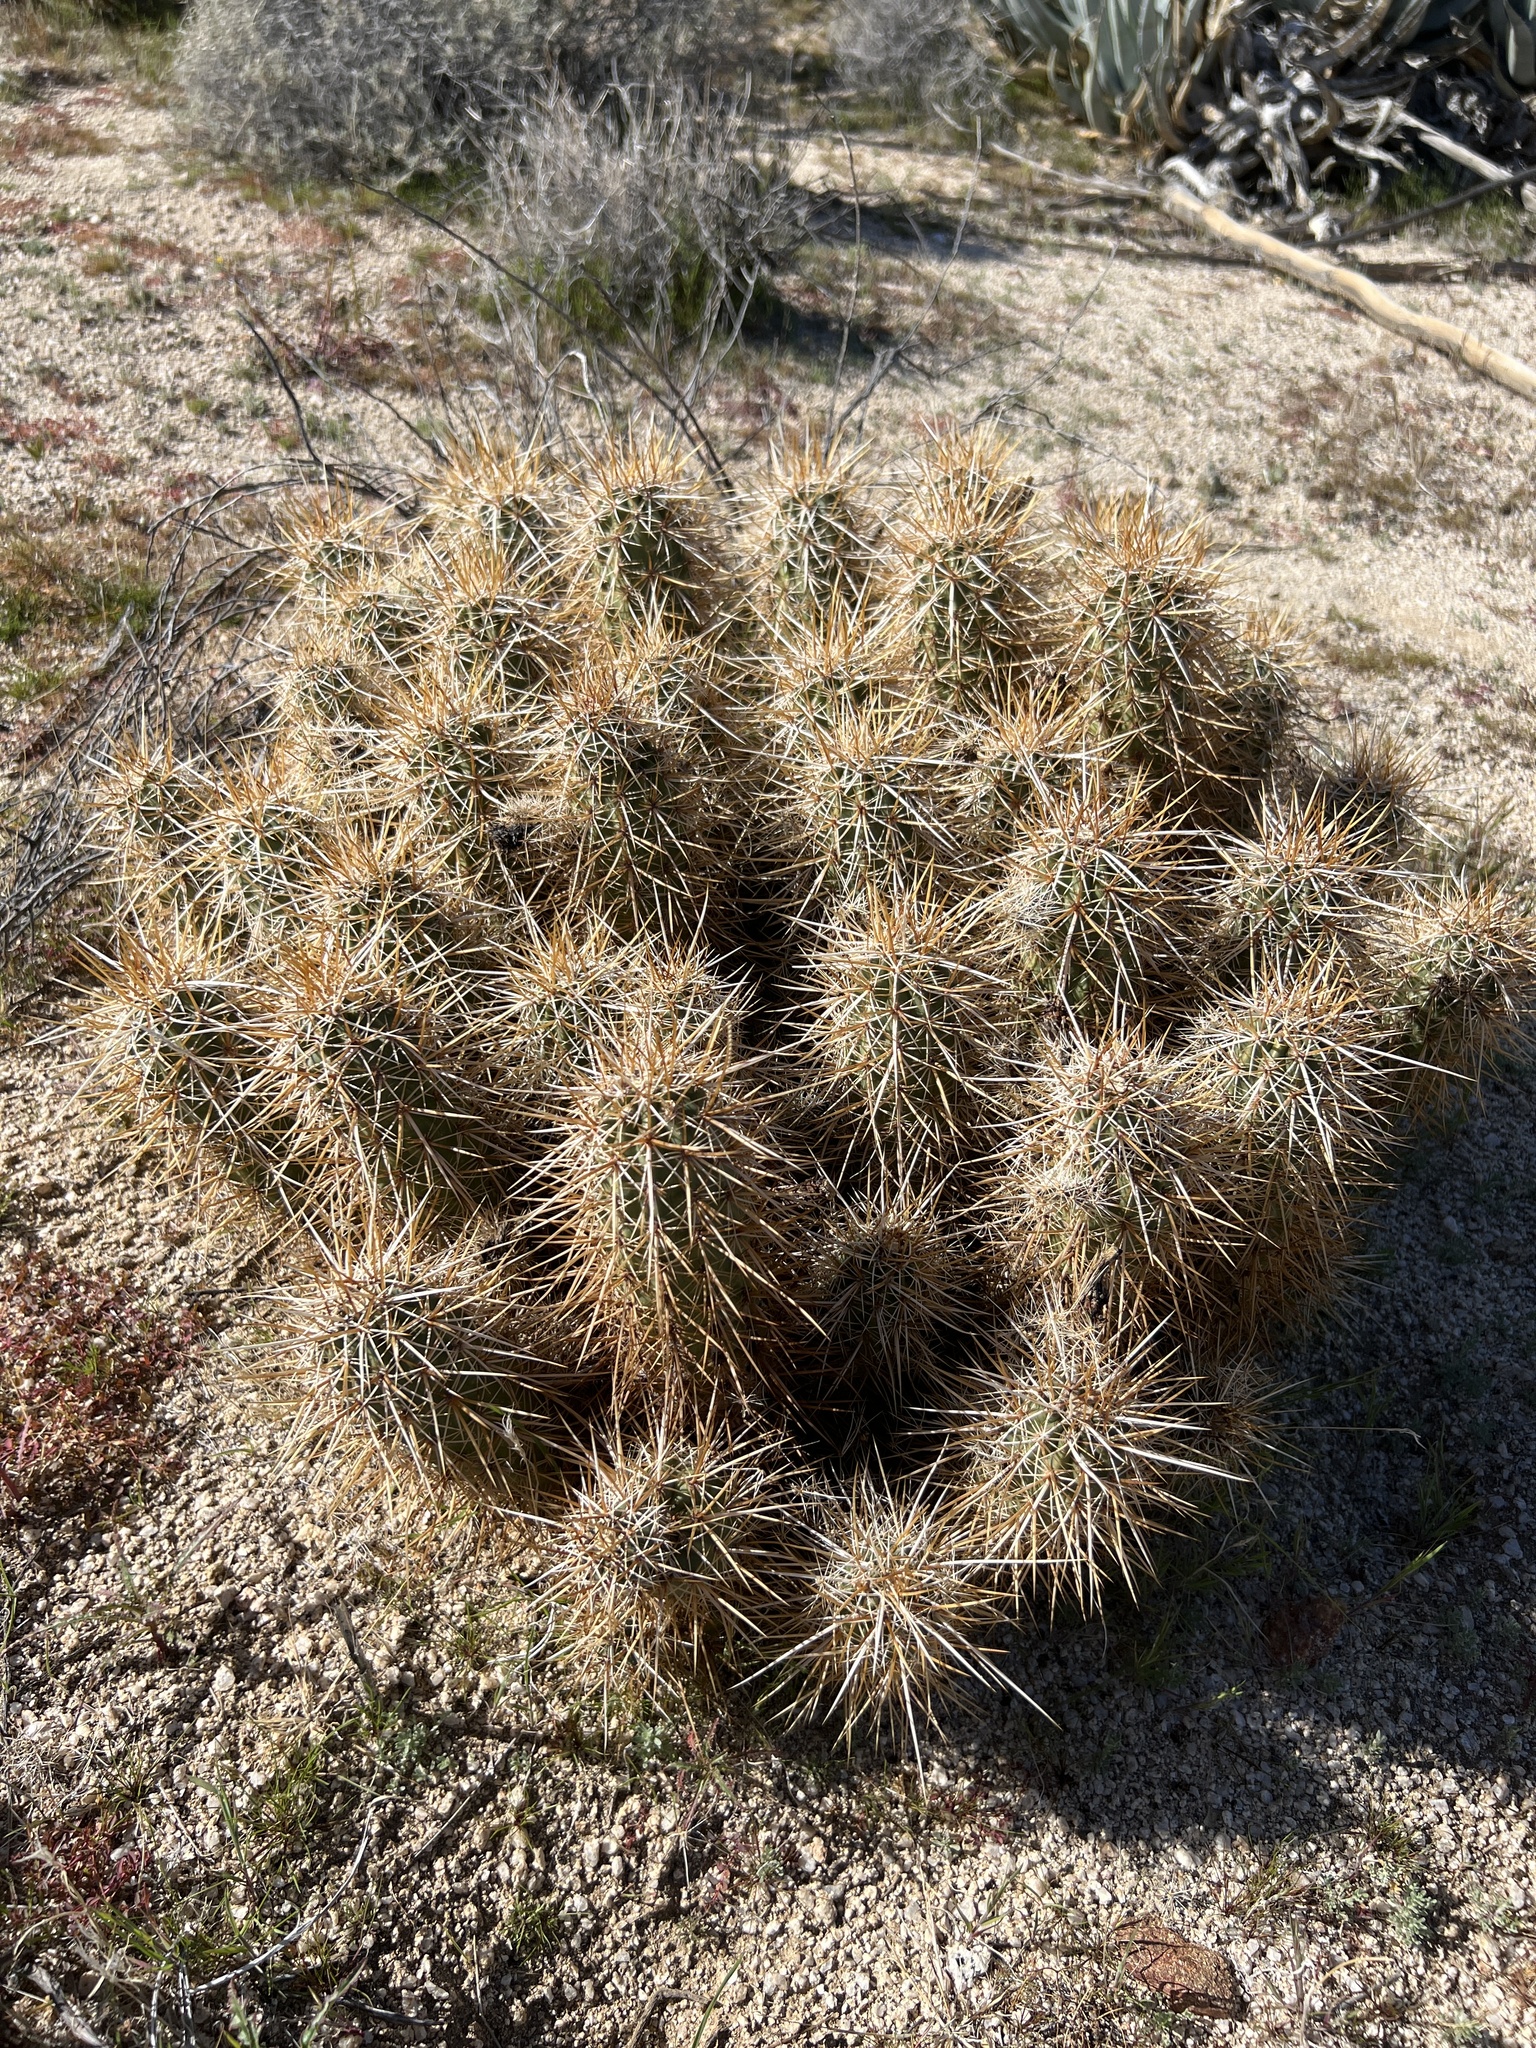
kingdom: Plantae
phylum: Tracheophyta
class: Magnoliopsida
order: Caryophyllales
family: Cactaceae
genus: Echinocereus
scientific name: Echinocereus engelmannii
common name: Engelmann's hedgehog cactus
